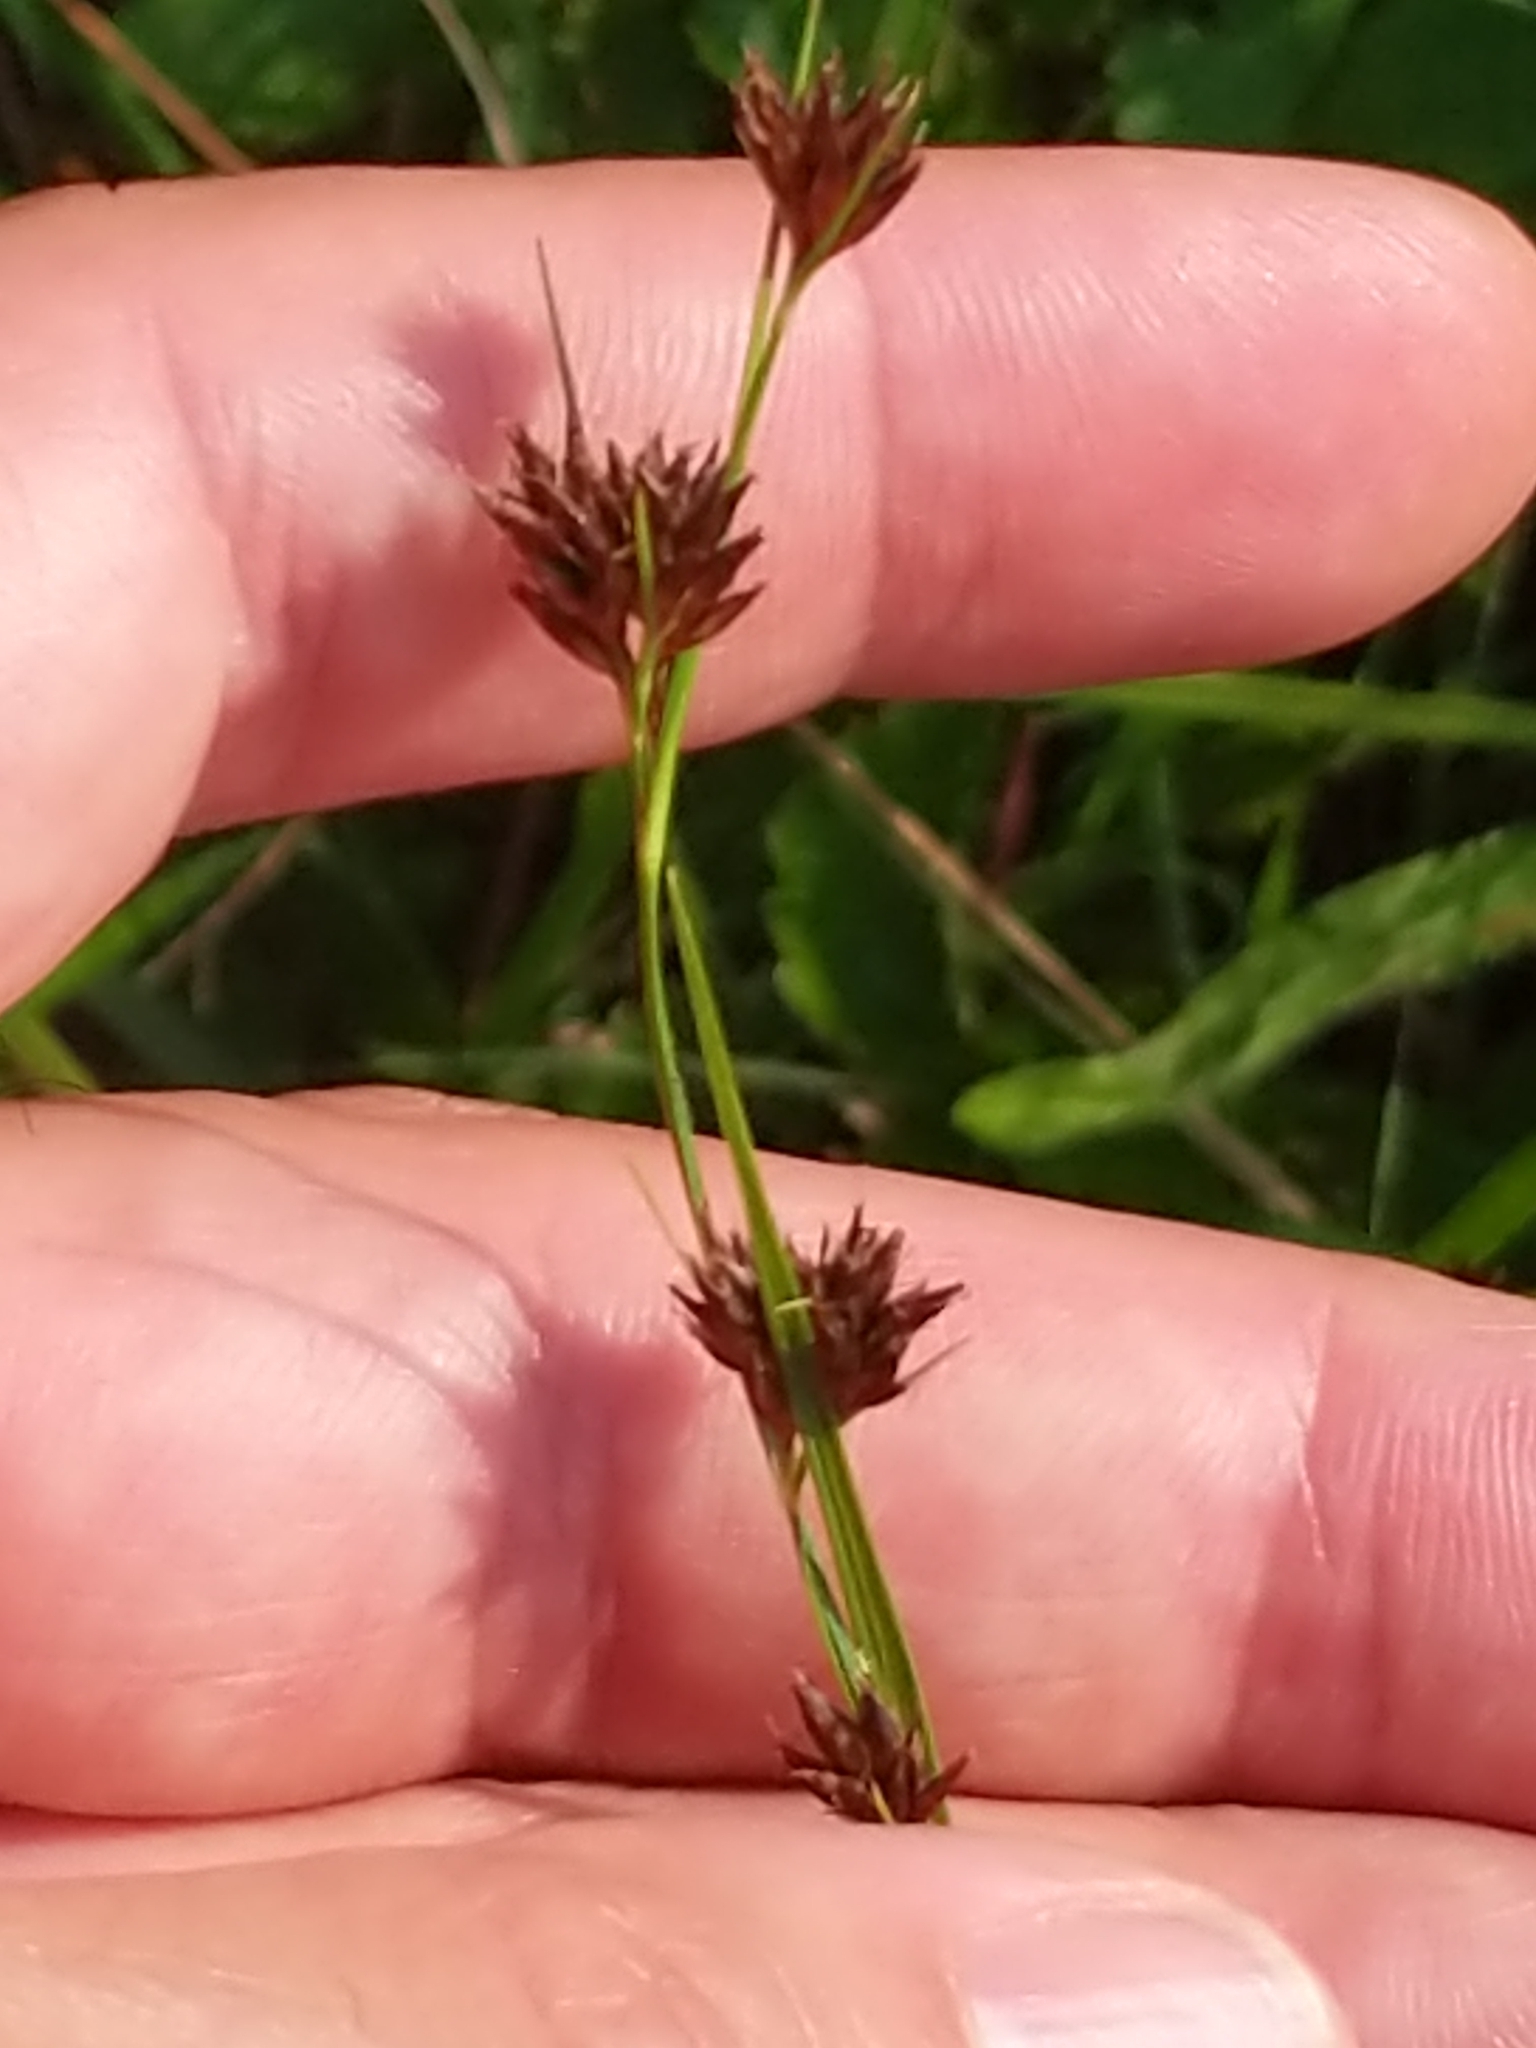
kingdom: Plantae
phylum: Tracheophyta
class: Liliopsida
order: Poales
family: Cyperaceae
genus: Rhynchospora
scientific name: Rhynchospora capitellata
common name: Brownish beaksedge
